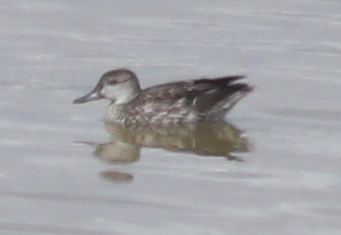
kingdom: Animalia
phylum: Chordata
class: Aves
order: Anseriformes
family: Anatidae
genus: Anas
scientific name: Anas crecca
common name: Eurasian teal
